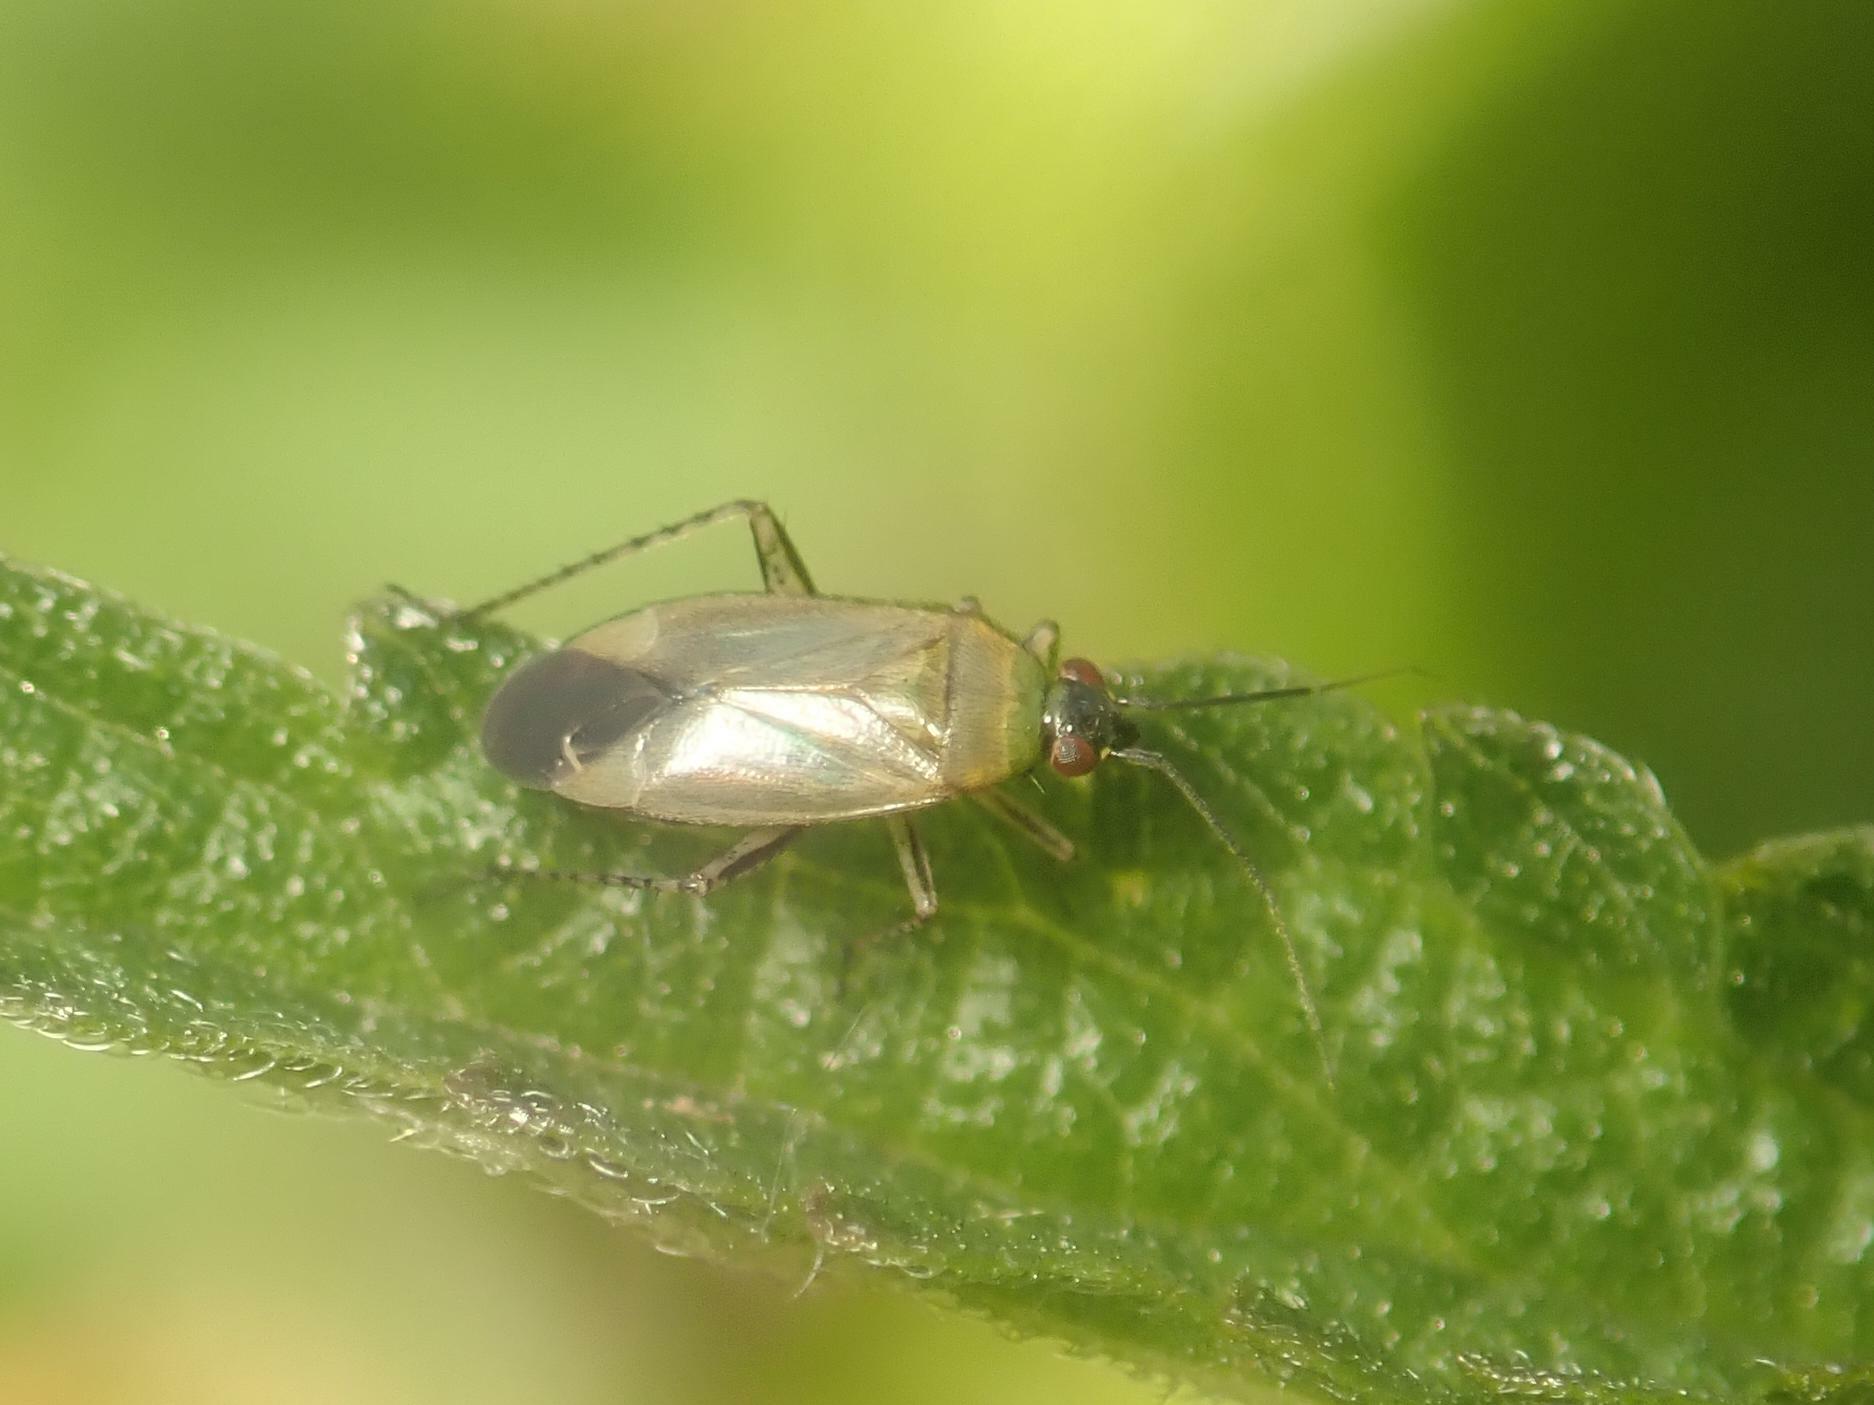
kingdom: Animalia
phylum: Arthropoda
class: Insecta
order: Hemiptera
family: Miridae
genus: Plagiognathus
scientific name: Plagiognathus arbustorum
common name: Plant bug
